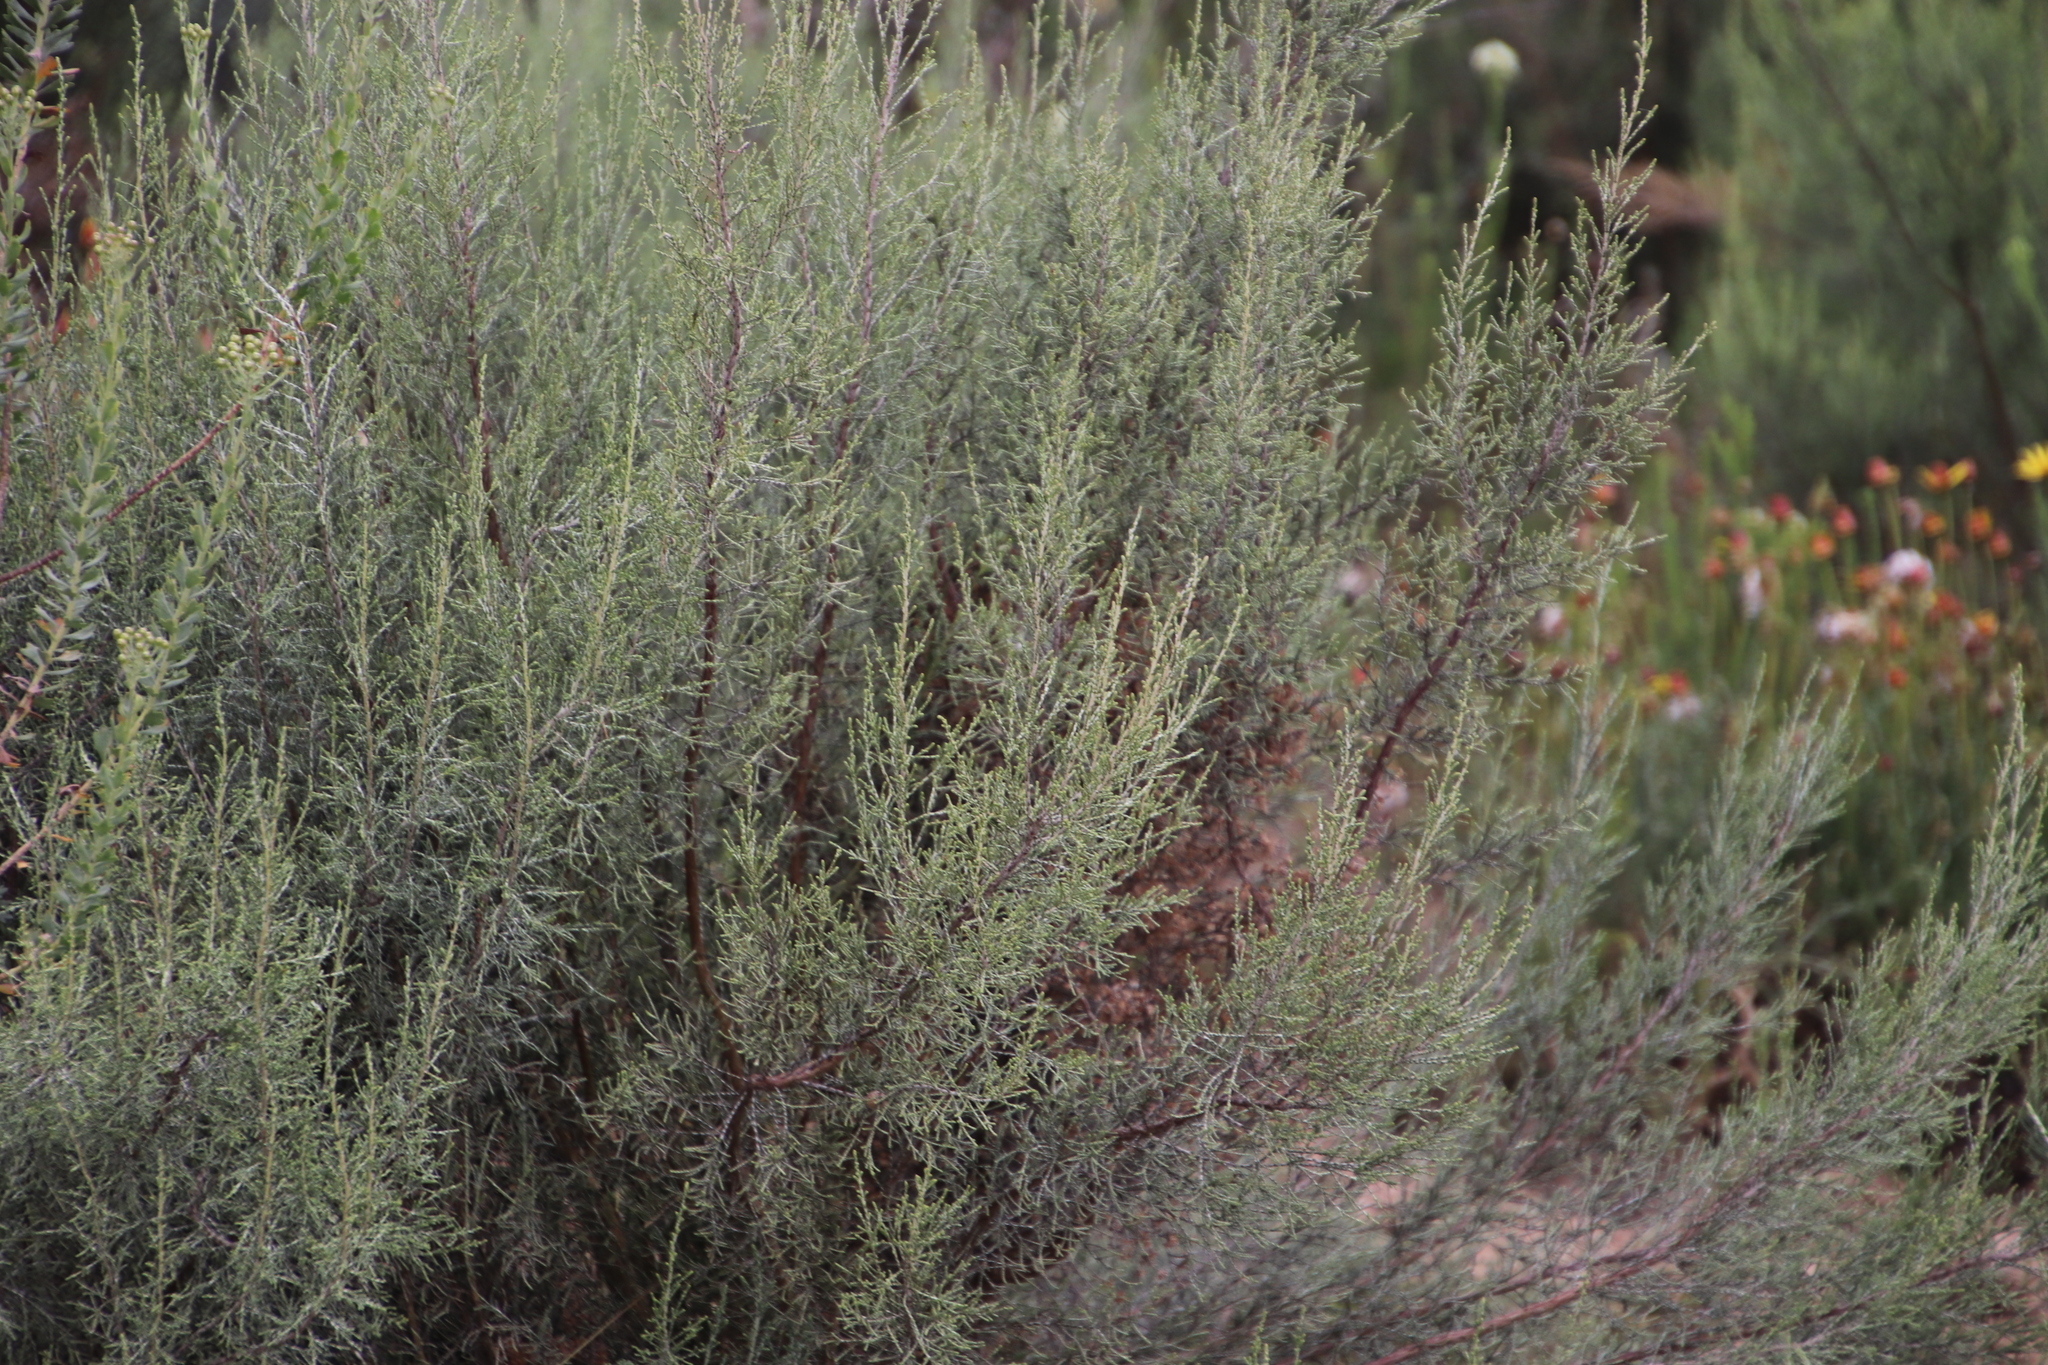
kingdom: Plantae
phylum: Tracheophyta
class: Magnoliopsida
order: Asterales
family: Asteraceae
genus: Dicerothamnus
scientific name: Dicerothamnus rhinocerotis
